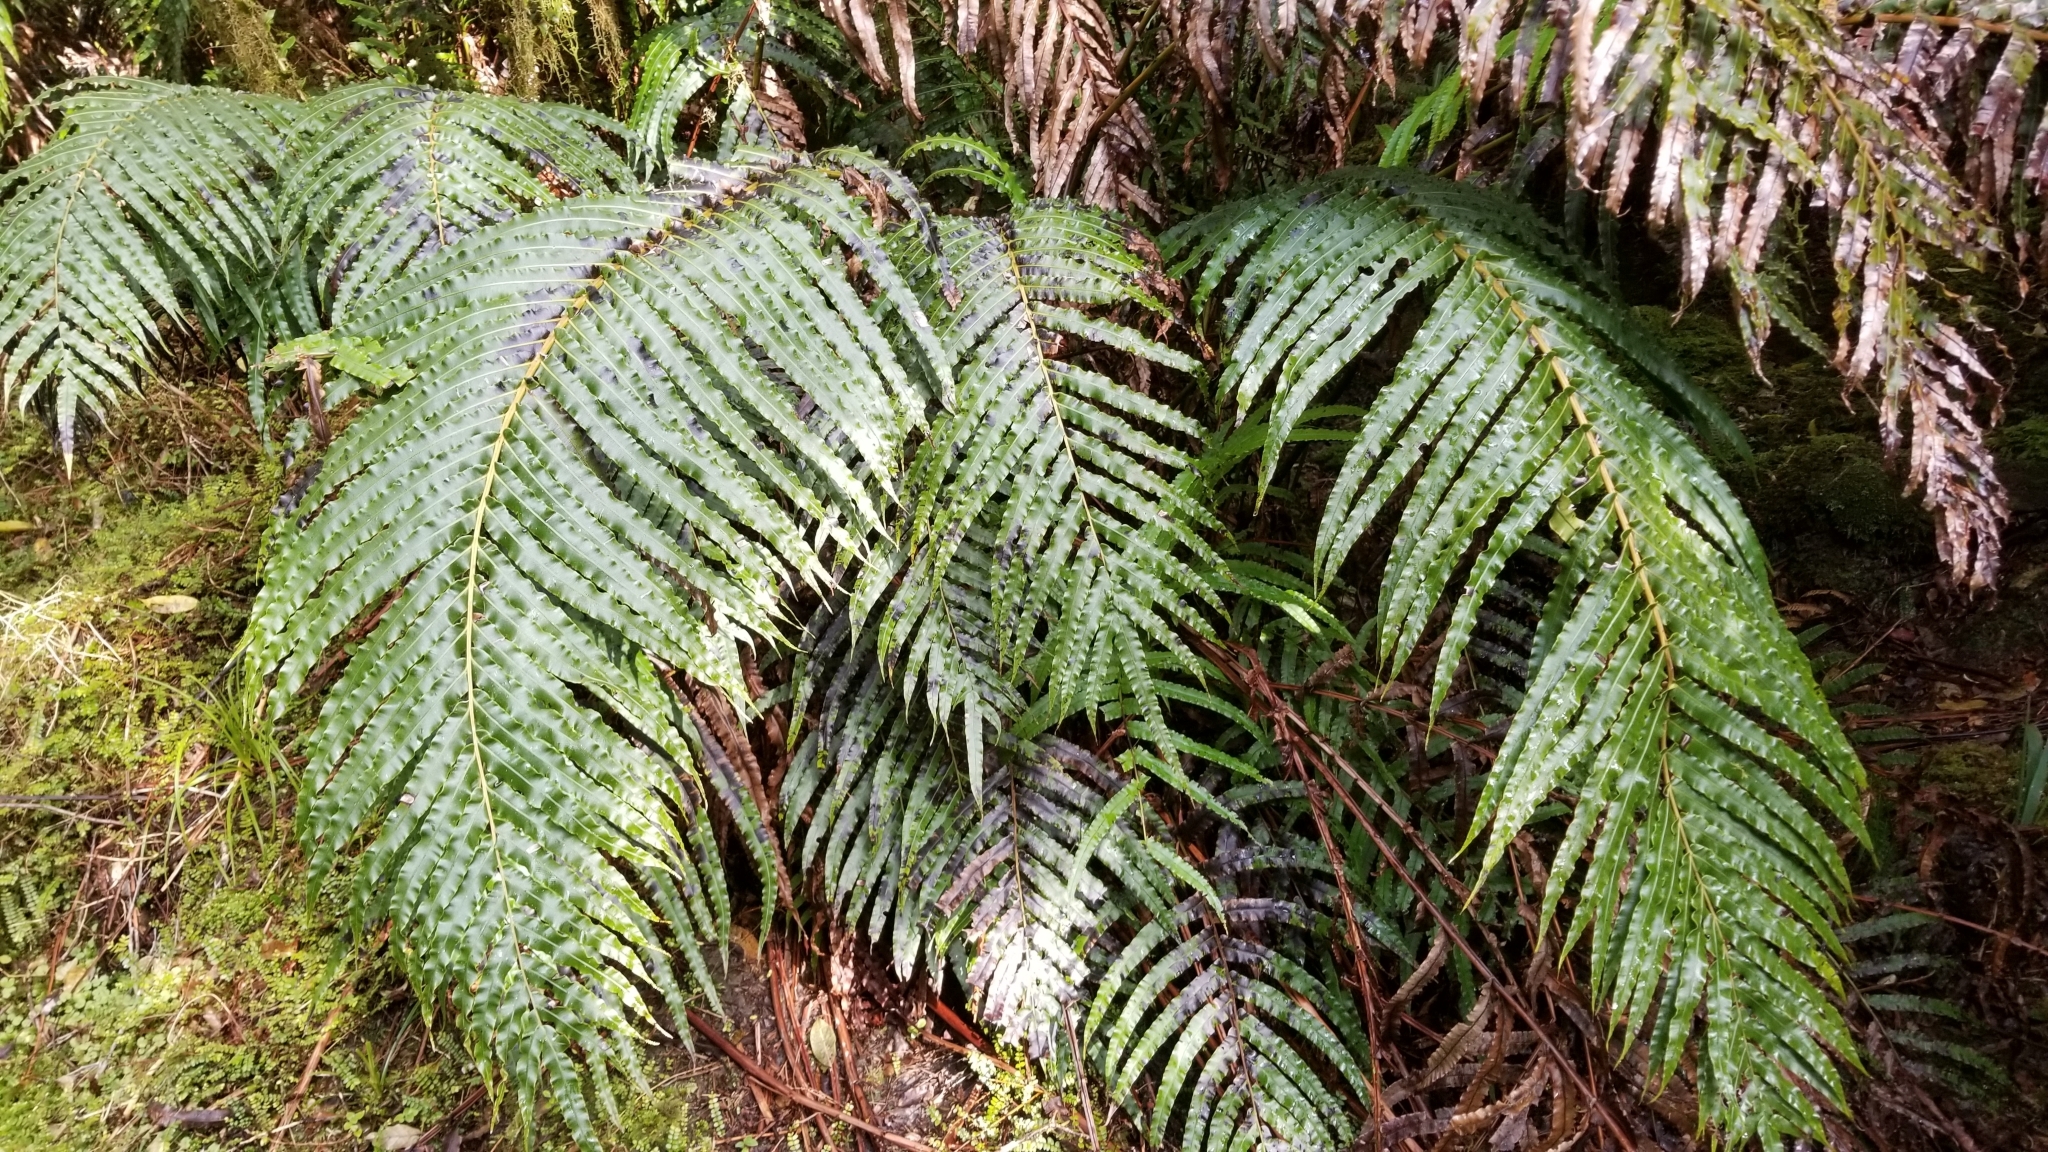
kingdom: Plantae
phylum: Tracheophyta
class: Polypodiopsida
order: Polypodiales
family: Blechnaceae
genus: Parablechnum
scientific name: Parablechnum novae-zelandiae
